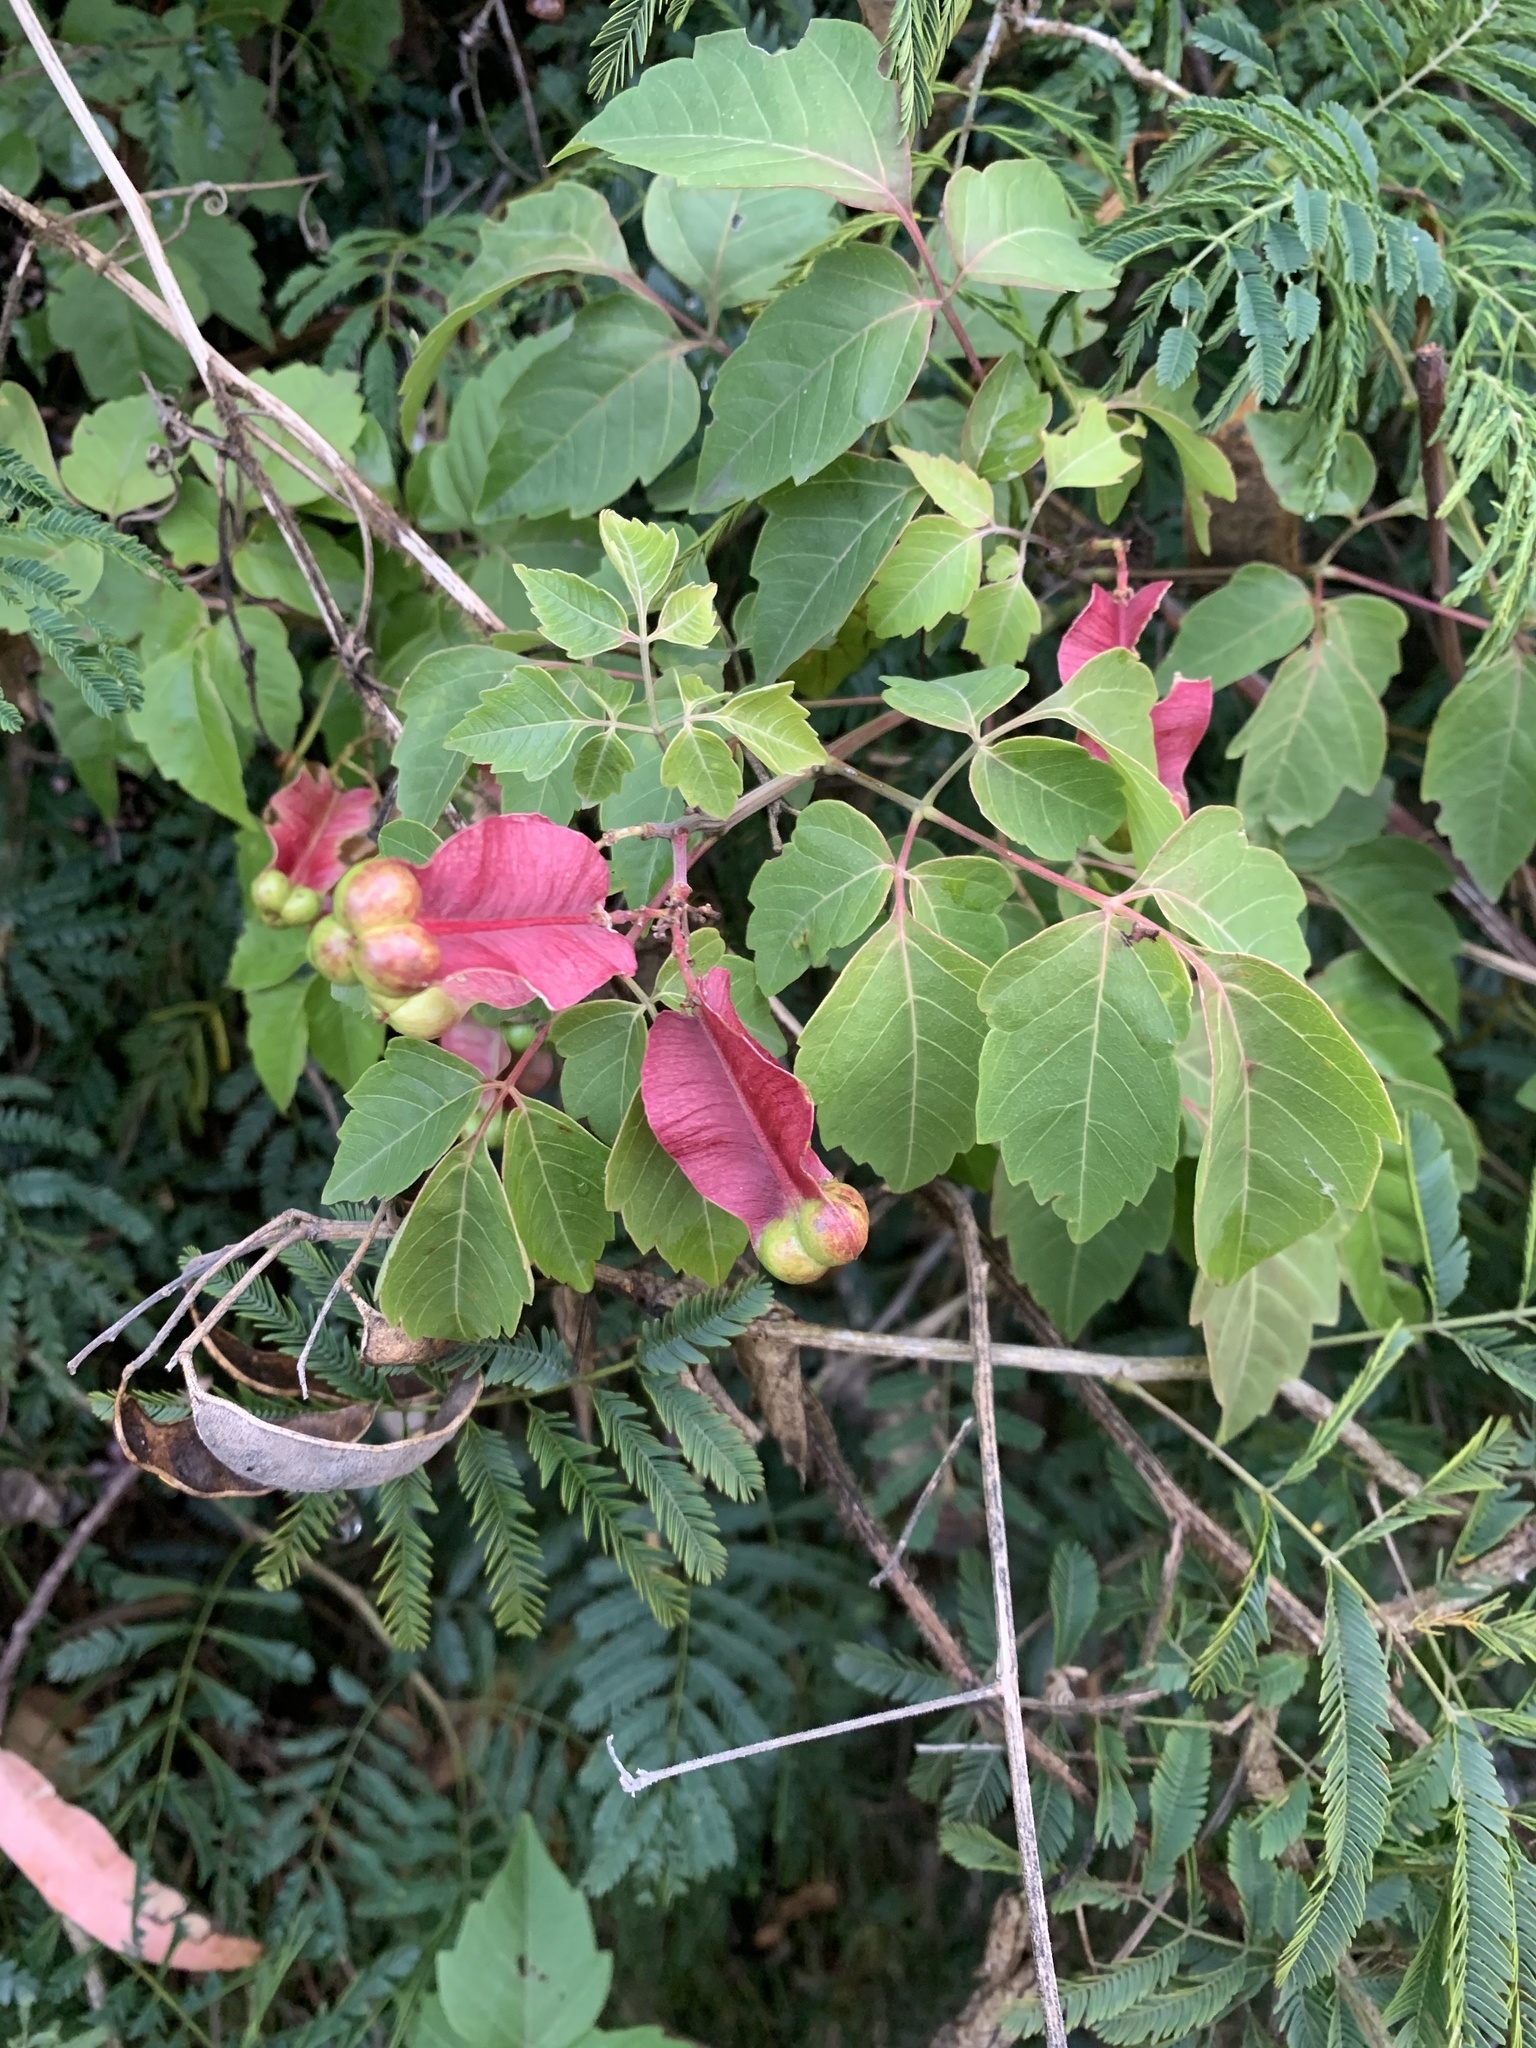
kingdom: Plantae
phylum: Tracheophyta
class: Magnoliopsida
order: Sapindales
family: Sapindaceae
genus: Serjania
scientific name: Serjania meridionalis
